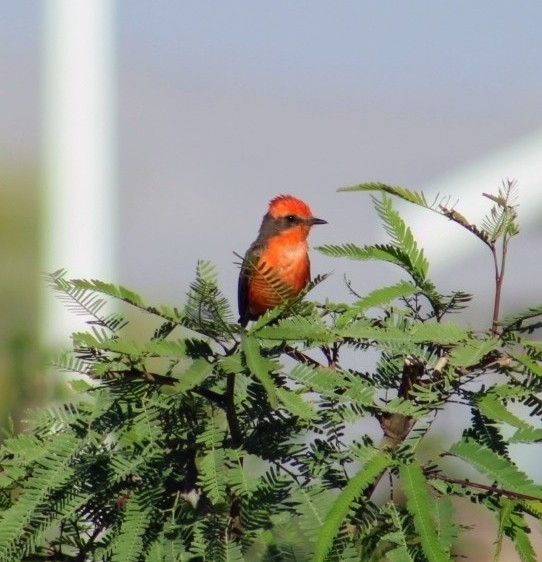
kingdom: Animalia
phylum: Chordata
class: Aves
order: Passeriformes
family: Tyrannidae
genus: Pyrocephalus
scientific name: Pyrocephalus rubinus
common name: Vermilion flycatcher
